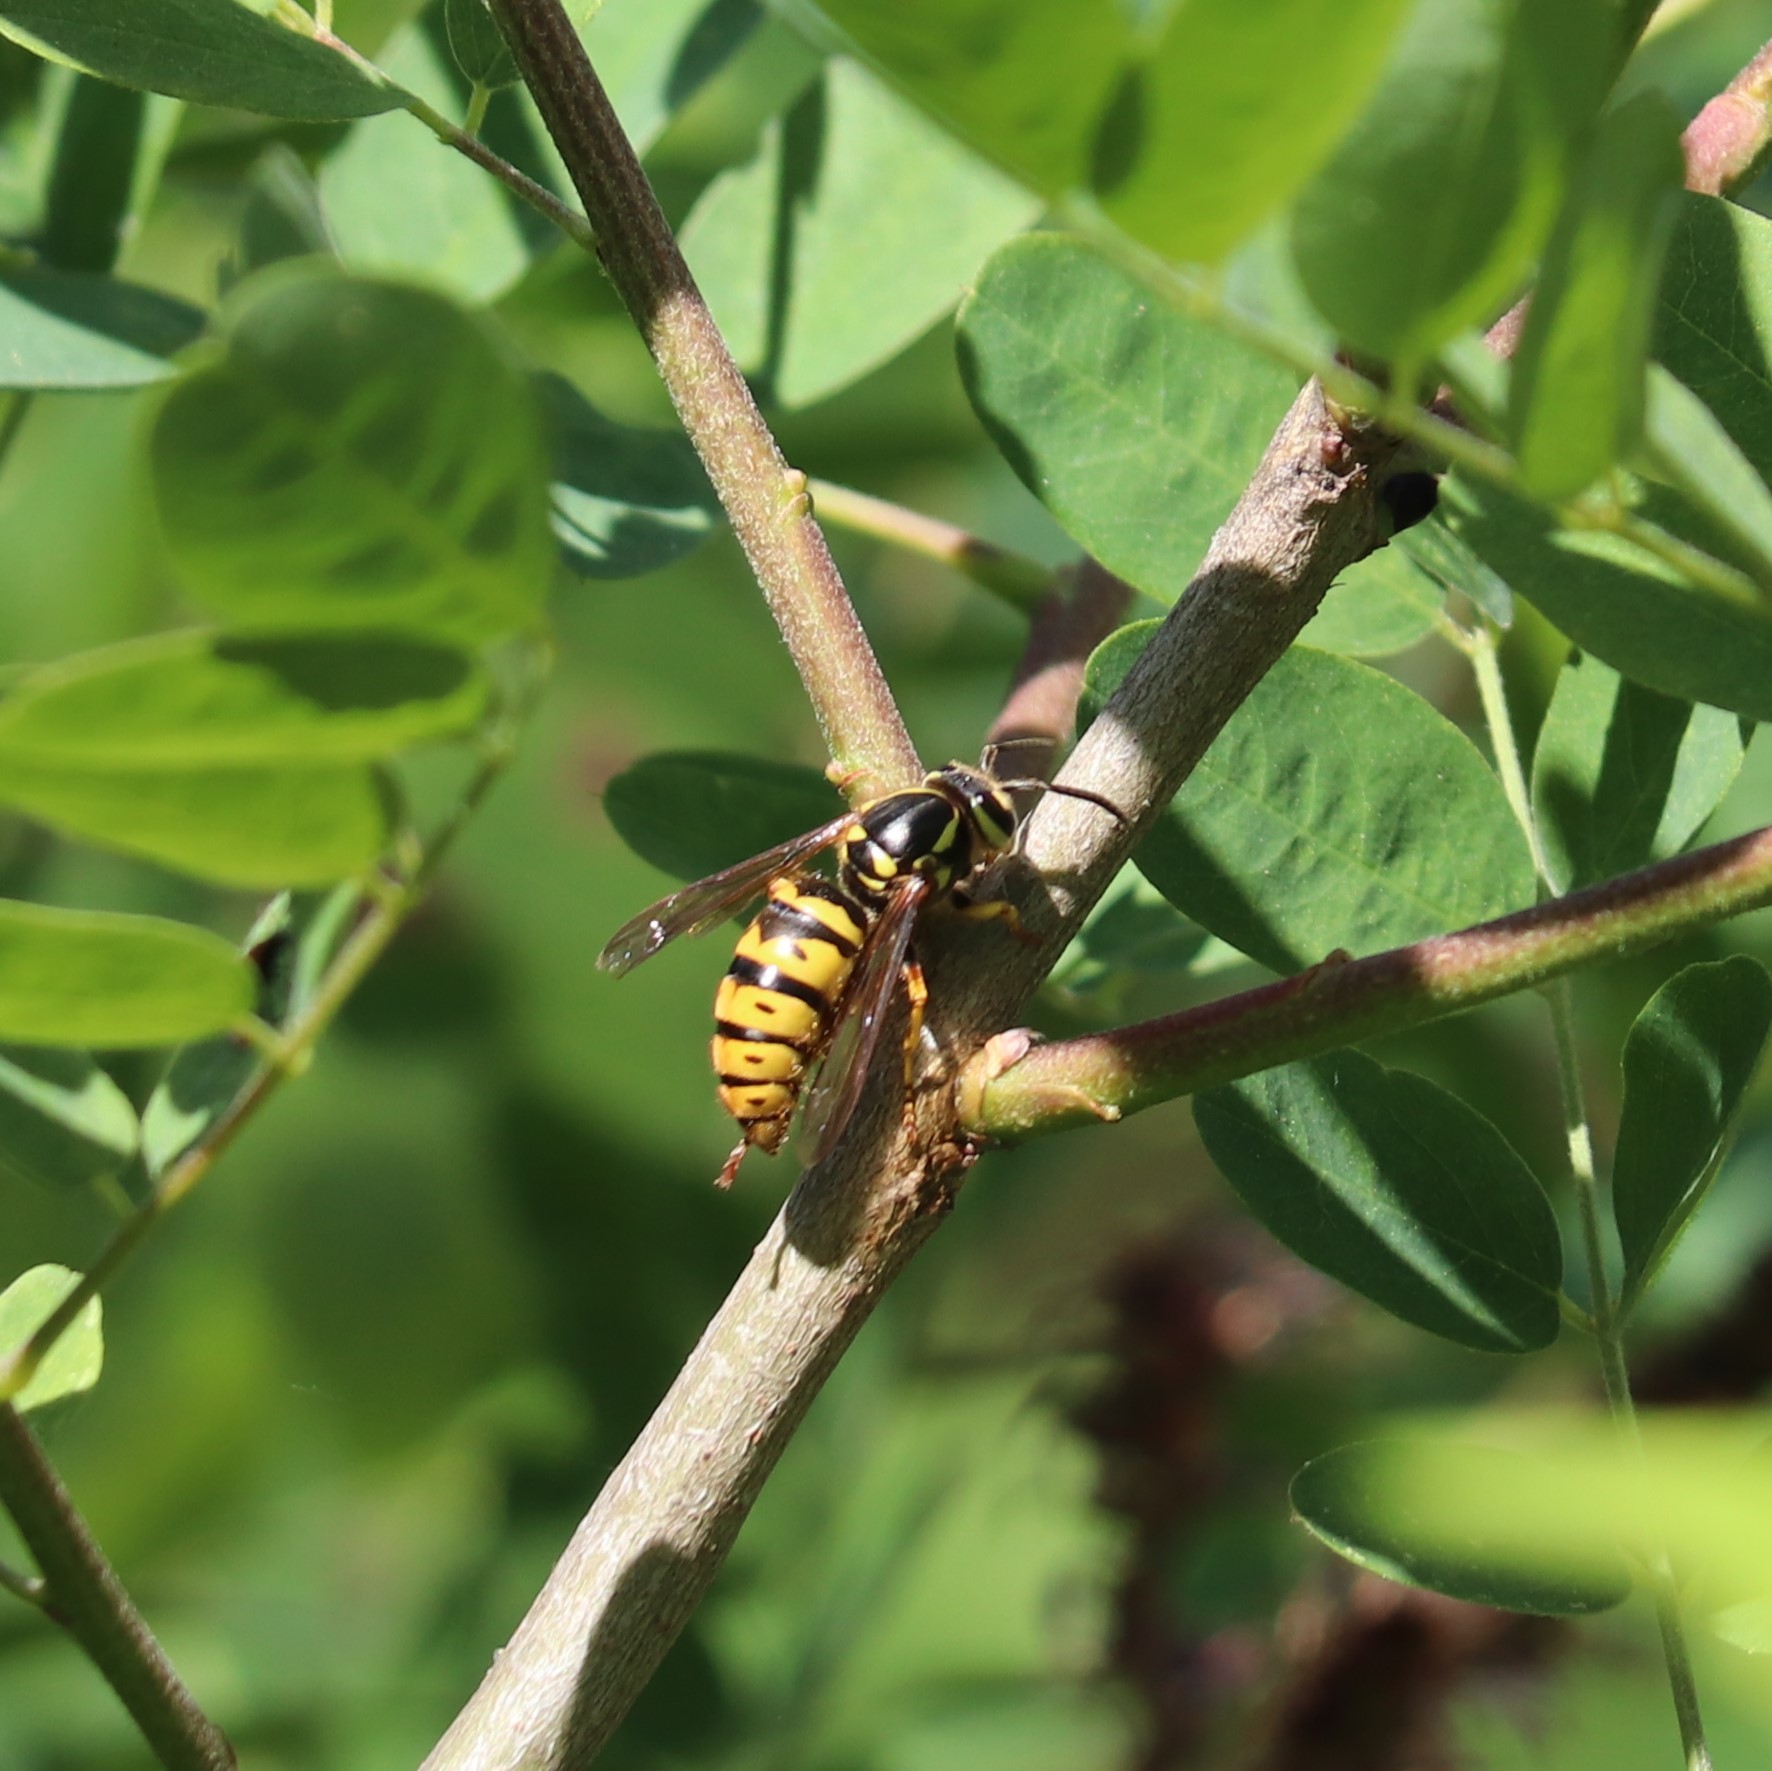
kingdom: Animalia
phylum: Arthropoda
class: Insecta
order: Hymenoptera
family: Vespidae
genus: Vespula
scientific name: Vespula flavopilosa
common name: Downy yellowjacket
